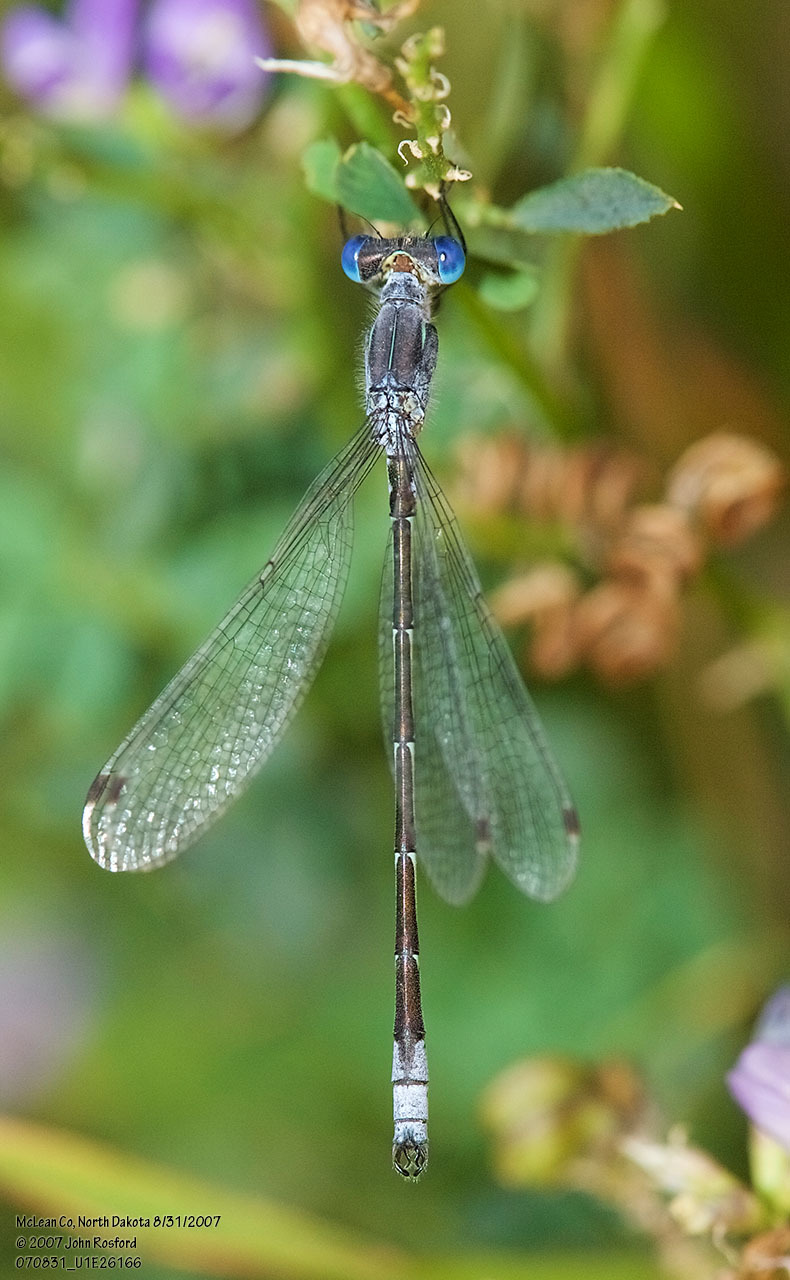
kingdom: Animalia
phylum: Arthropoda
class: Insecta
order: Odonata
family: Lestidae
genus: Lestes
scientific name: Lestes unguiculatus
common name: Lyre-tipped spreadwing
